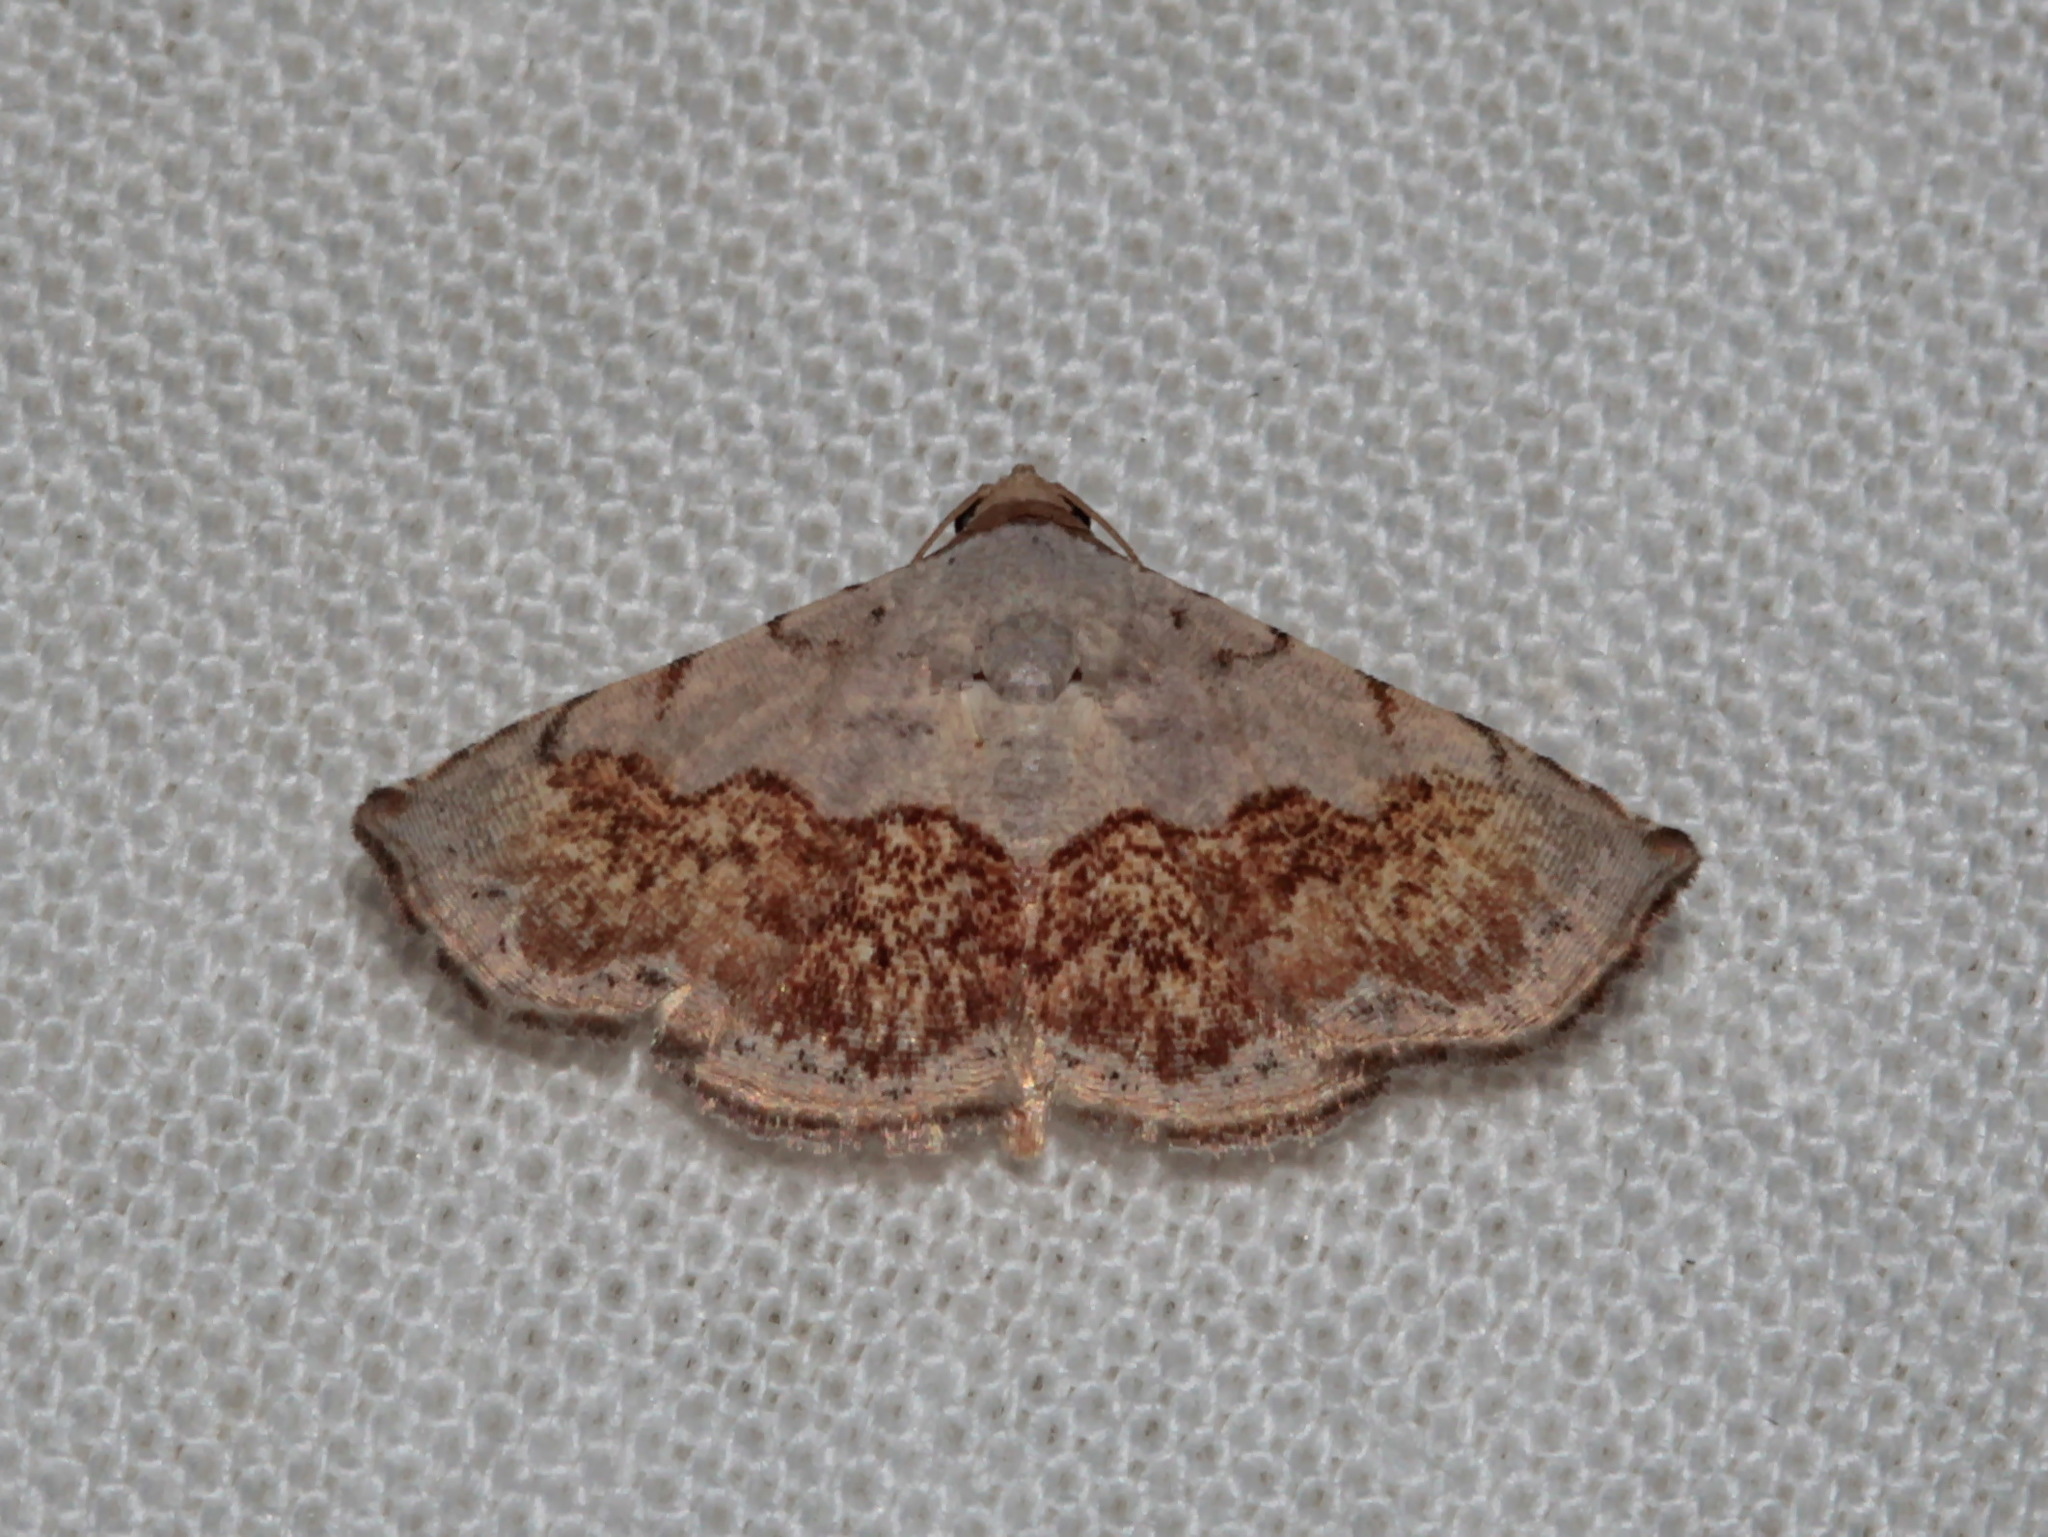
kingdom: Animalia
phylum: Arthropoda
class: Insecta
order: Lepidoptera
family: Noctuidae
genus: Eublemma
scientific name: Eublemma semirufa
